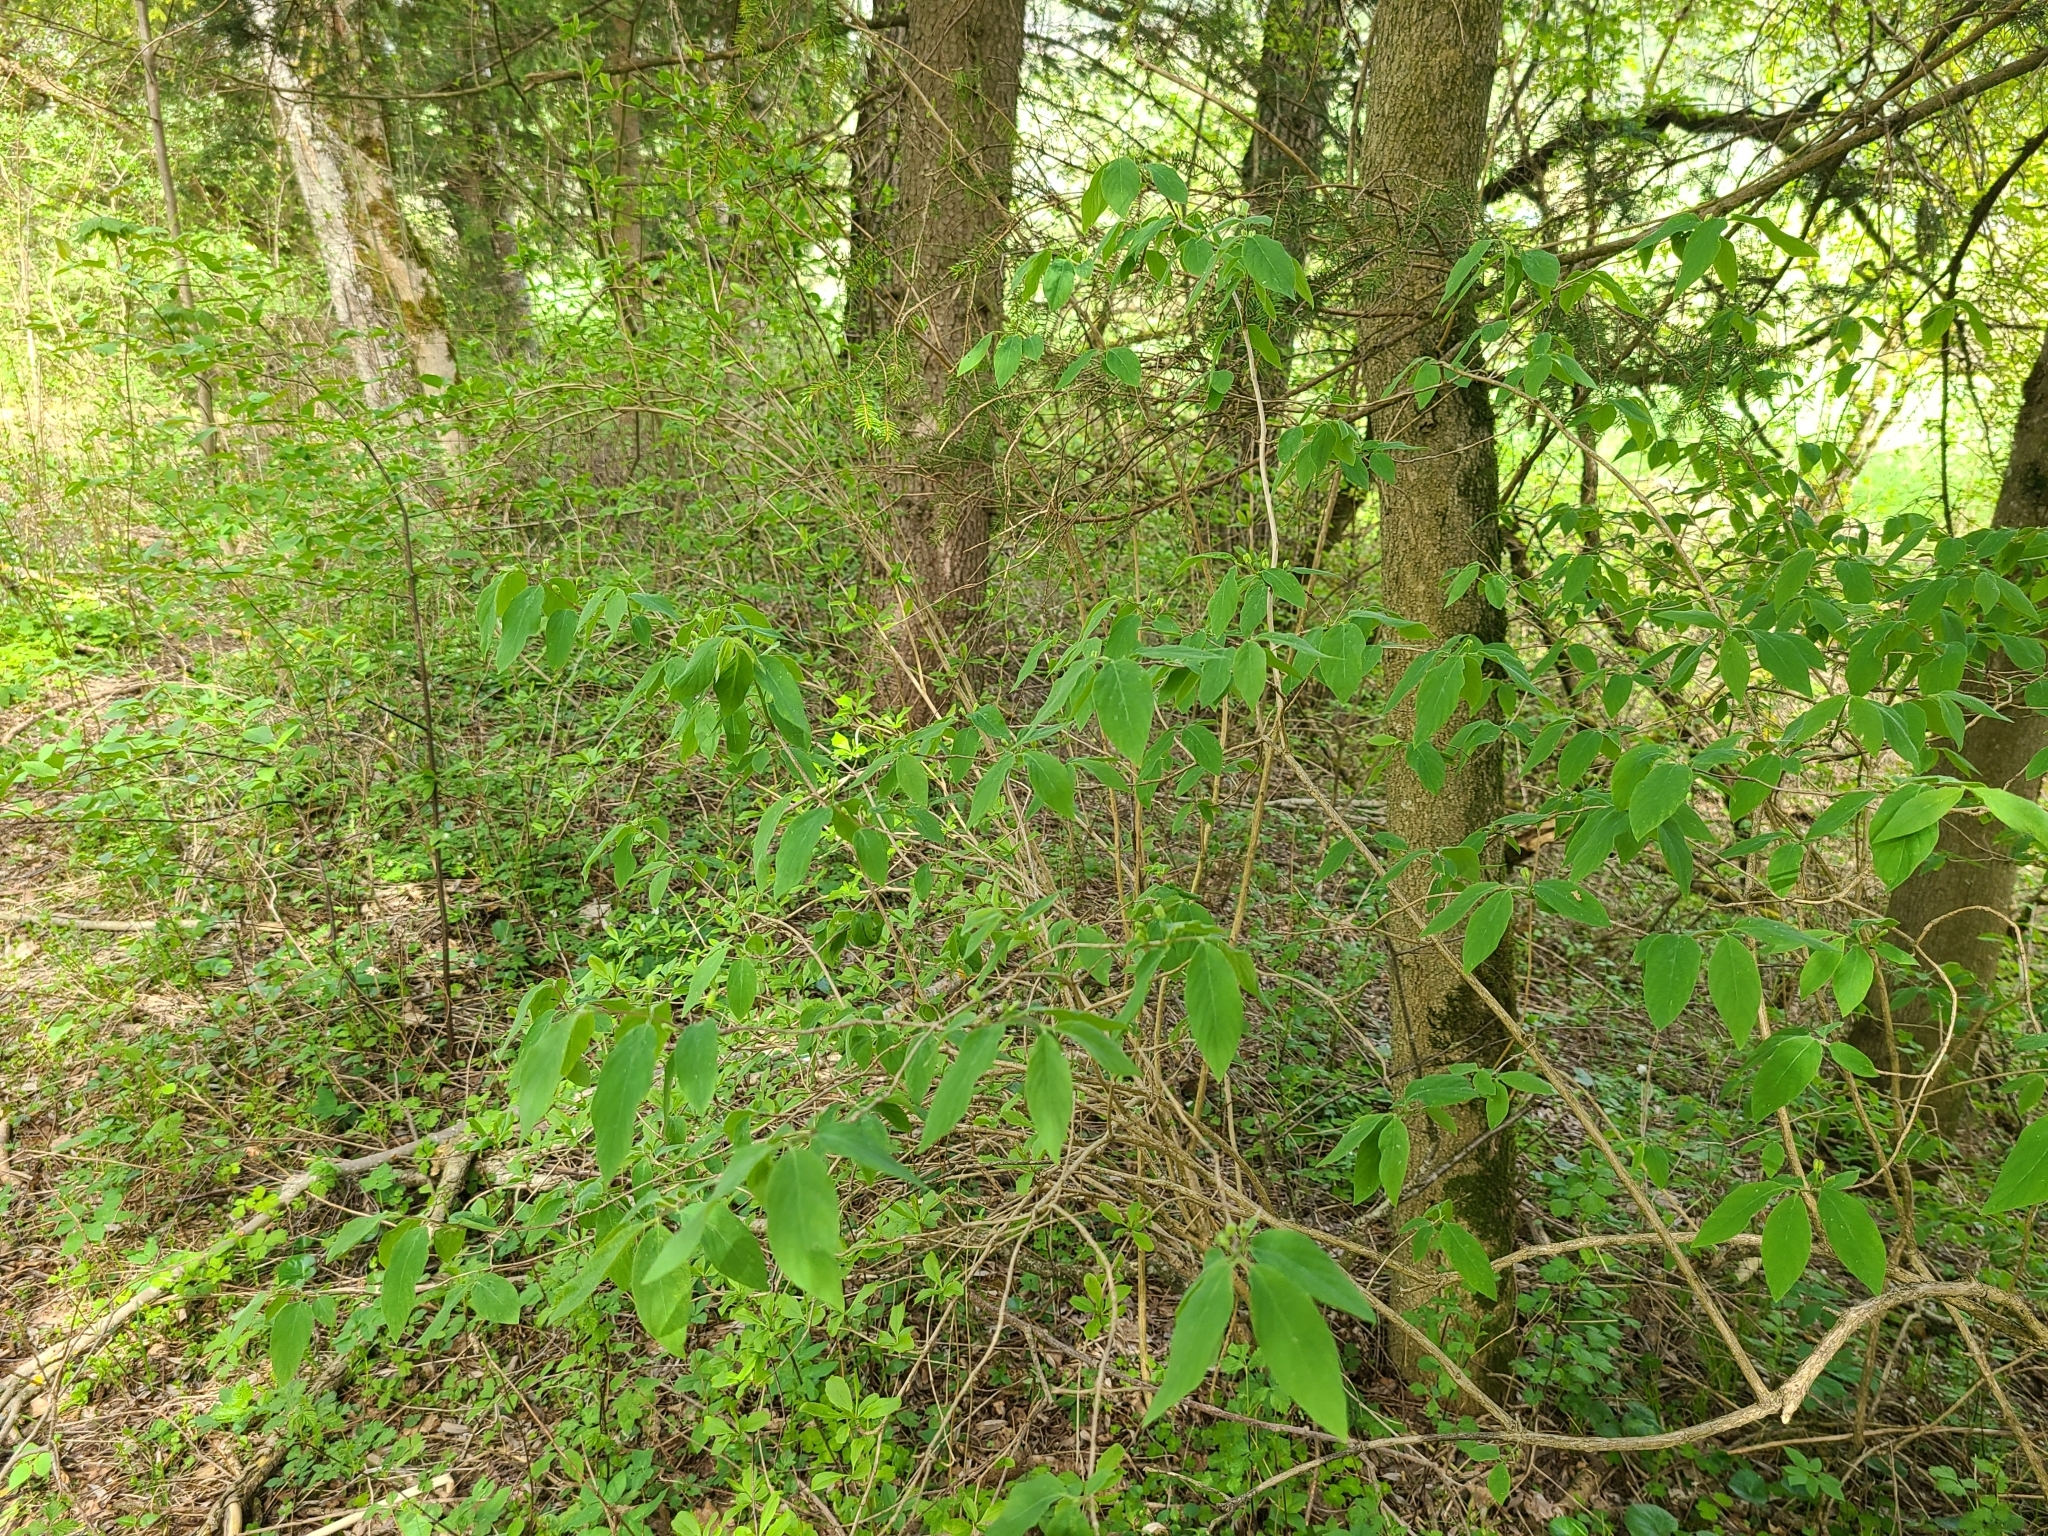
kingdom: Plantae
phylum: Tracheophyta
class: Magnoliopsida
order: Dipsacales
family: Caprifoliaceae
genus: Lonicera
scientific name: Lonicera xylosteum
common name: Fly honeysuckle
